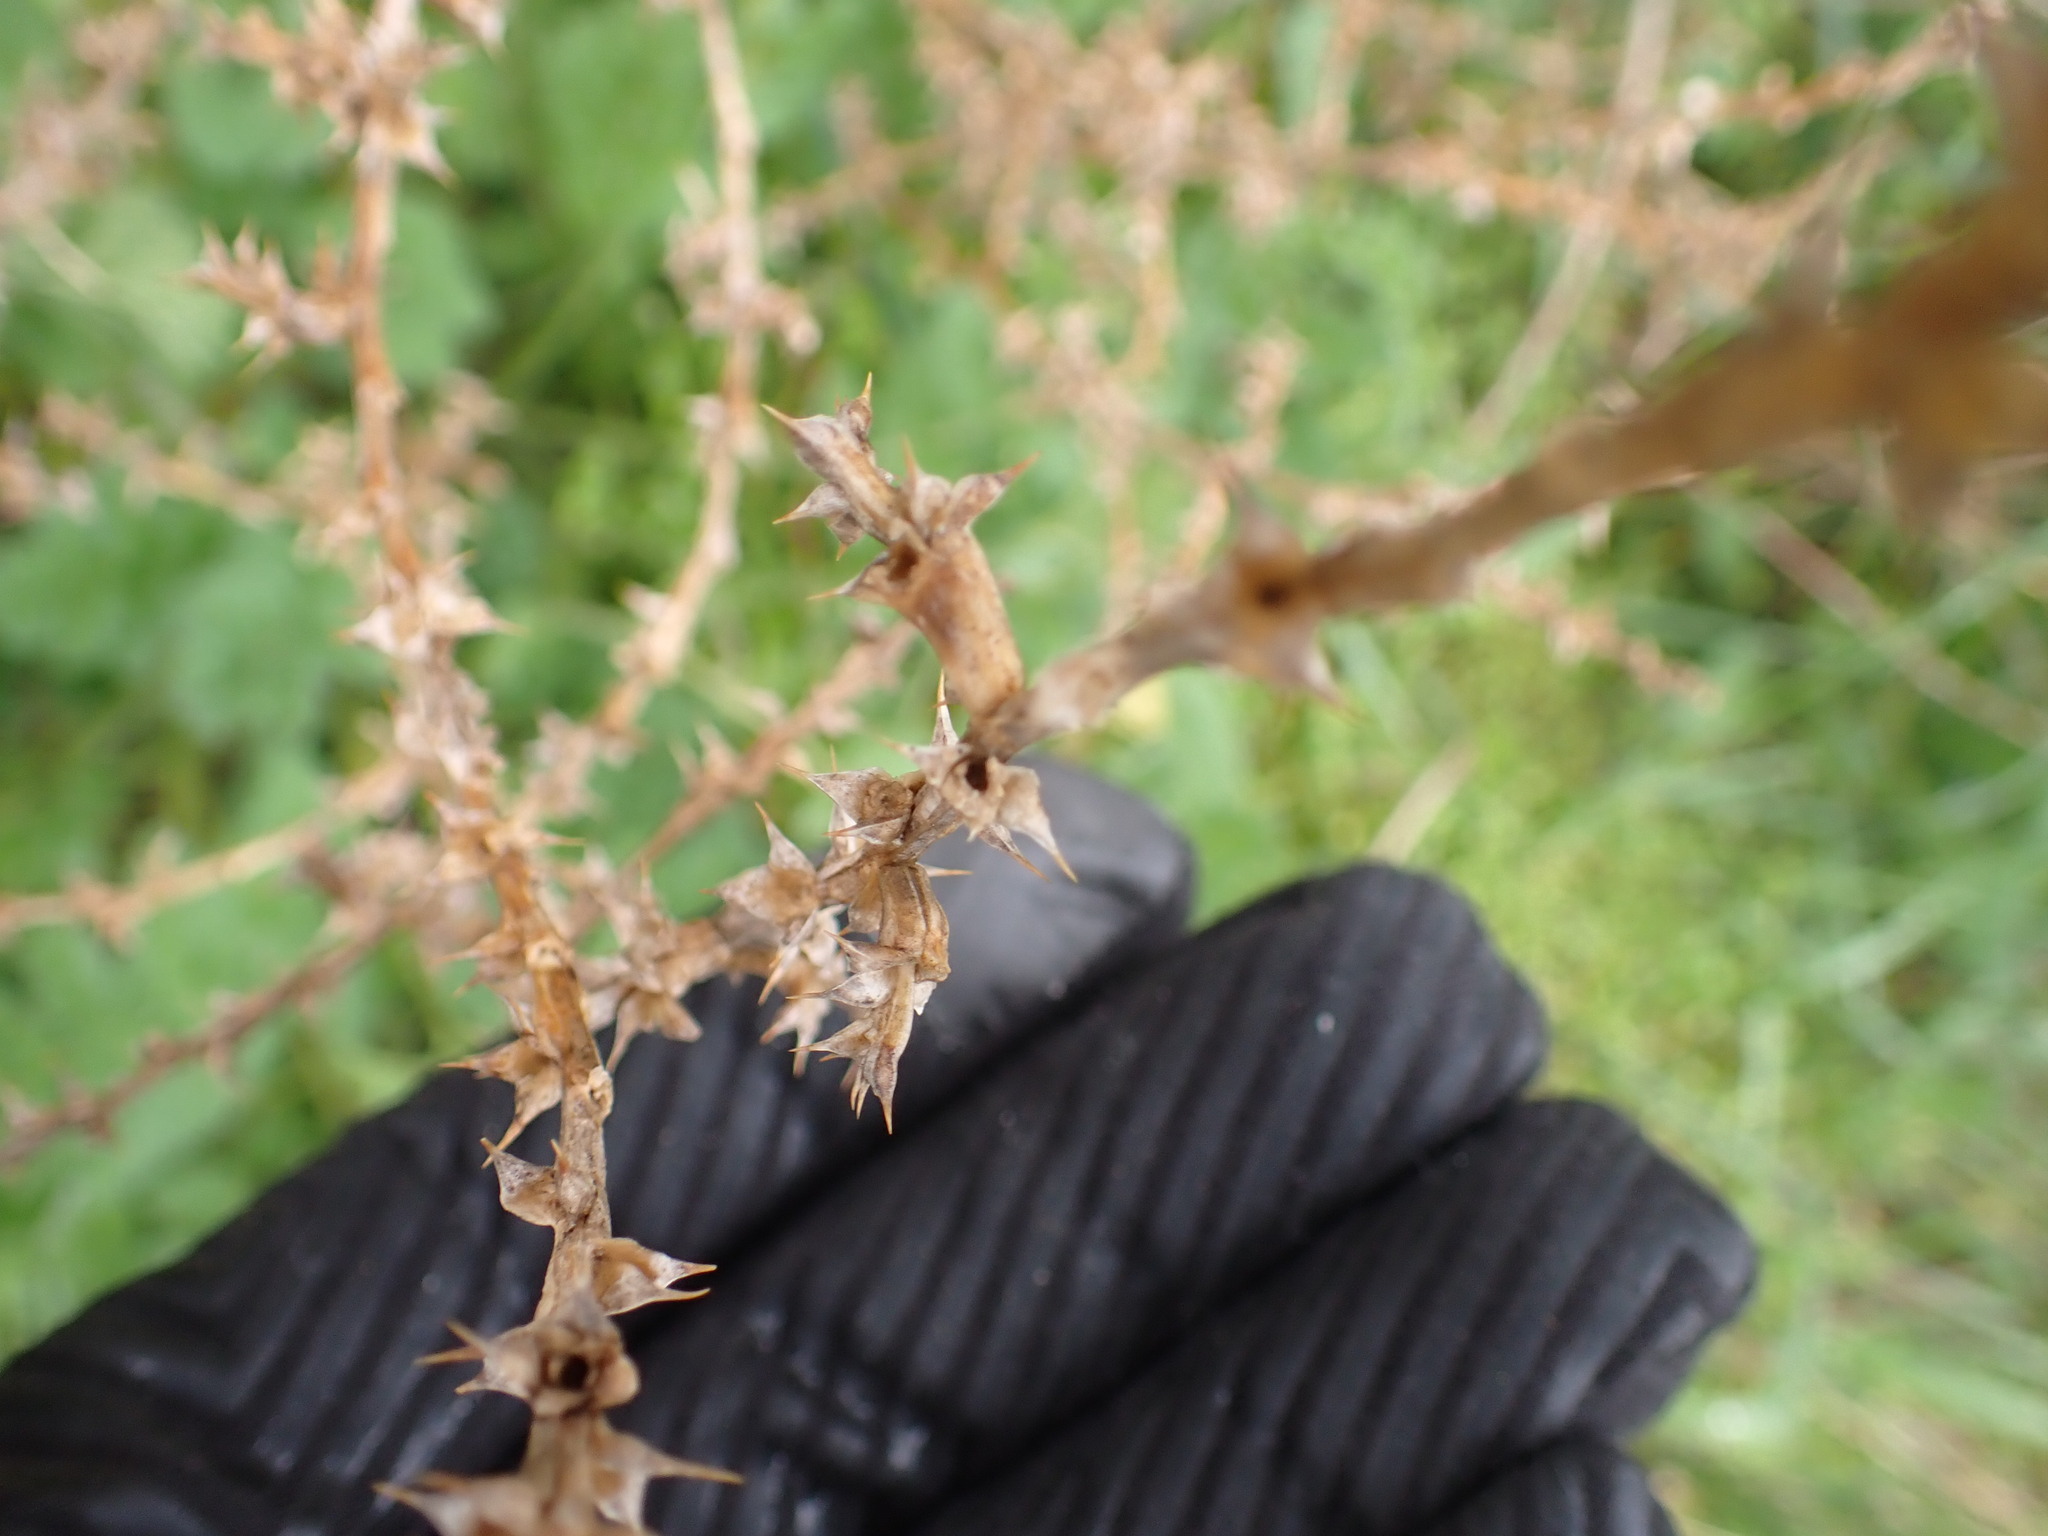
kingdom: Plantae
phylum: Tracheophyta
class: Magnoliopsida
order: Caryophyllales
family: Amaranthaceae
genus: Salsola
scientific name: Salsola kali
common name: Saltwort
